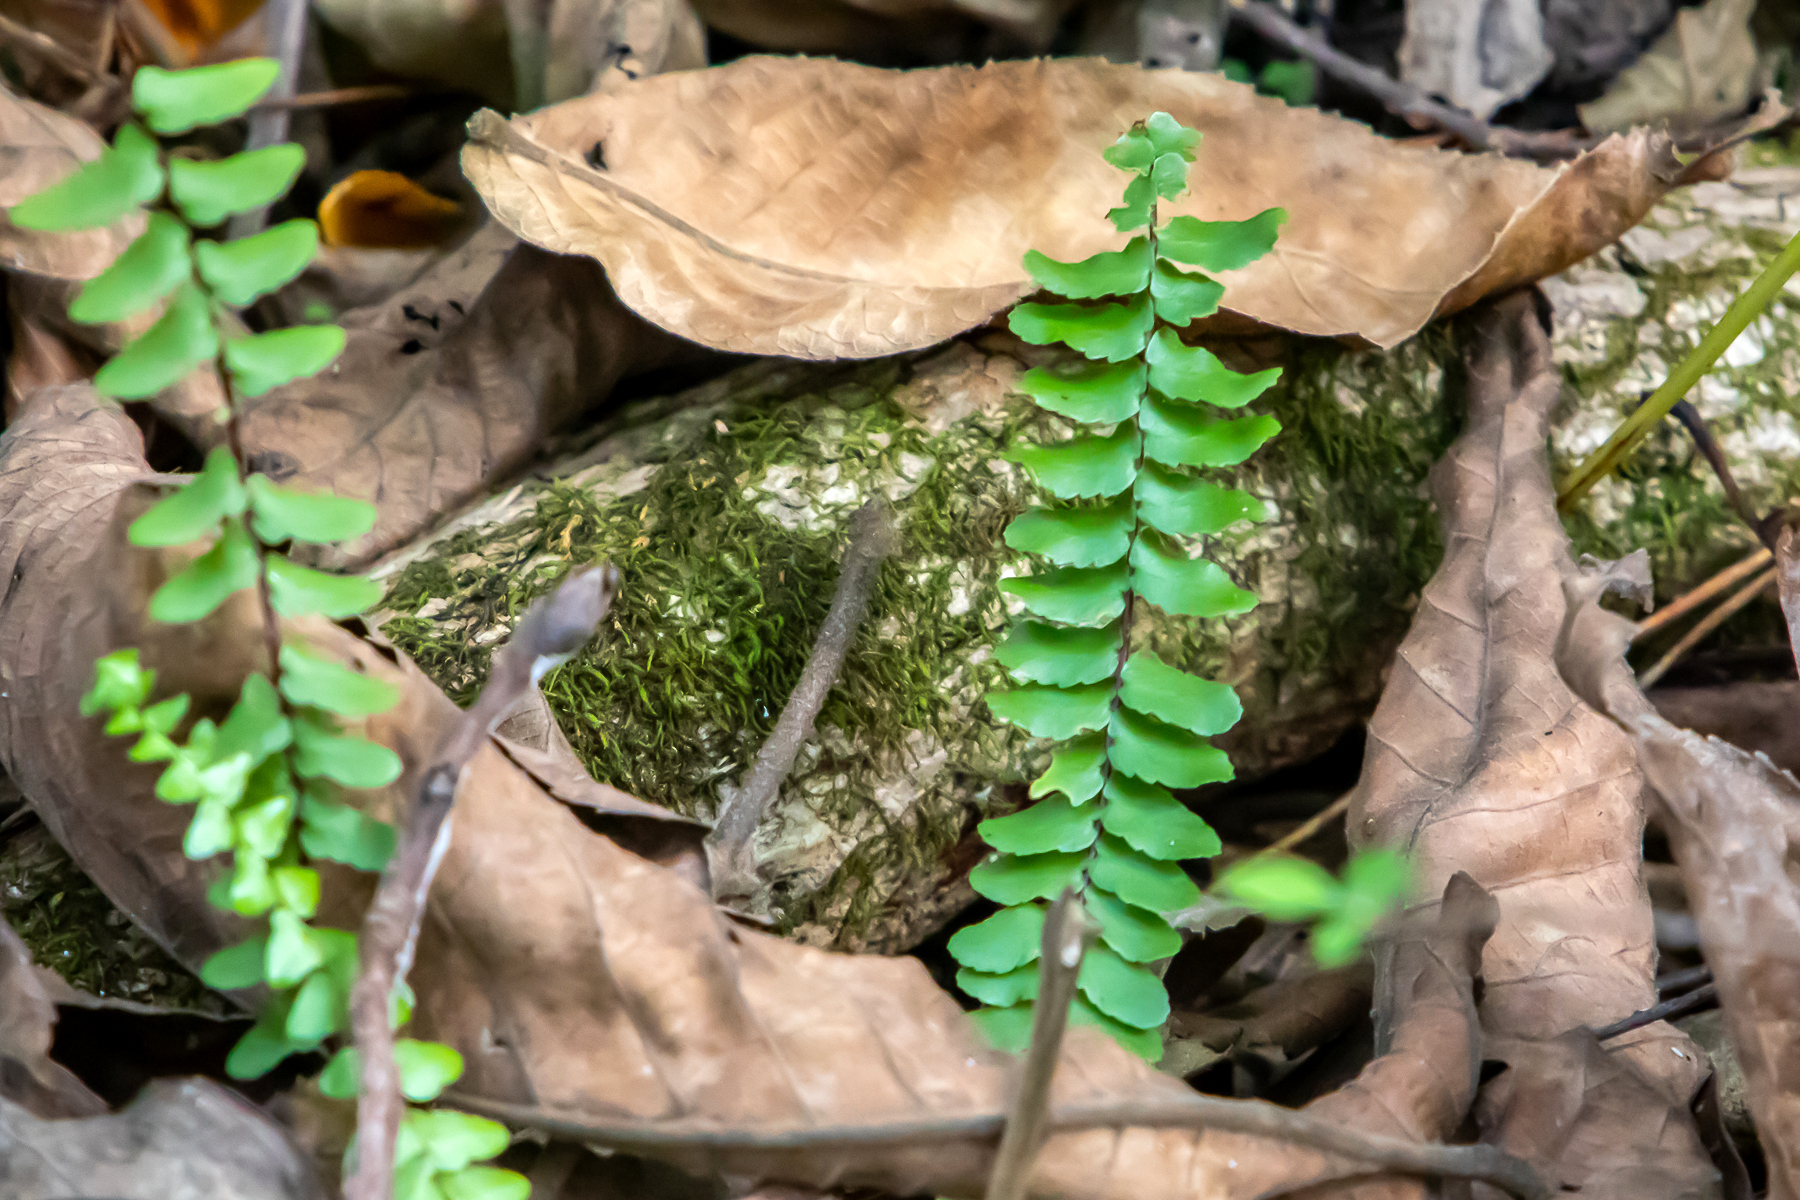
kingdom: Plantae
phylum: Tracheophyta
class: Polypodiopsida
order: Polypodiales
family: Aspleniaceae
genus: Asplenium
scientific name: Asplenium platyneuron
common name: Ebony spleenwort
